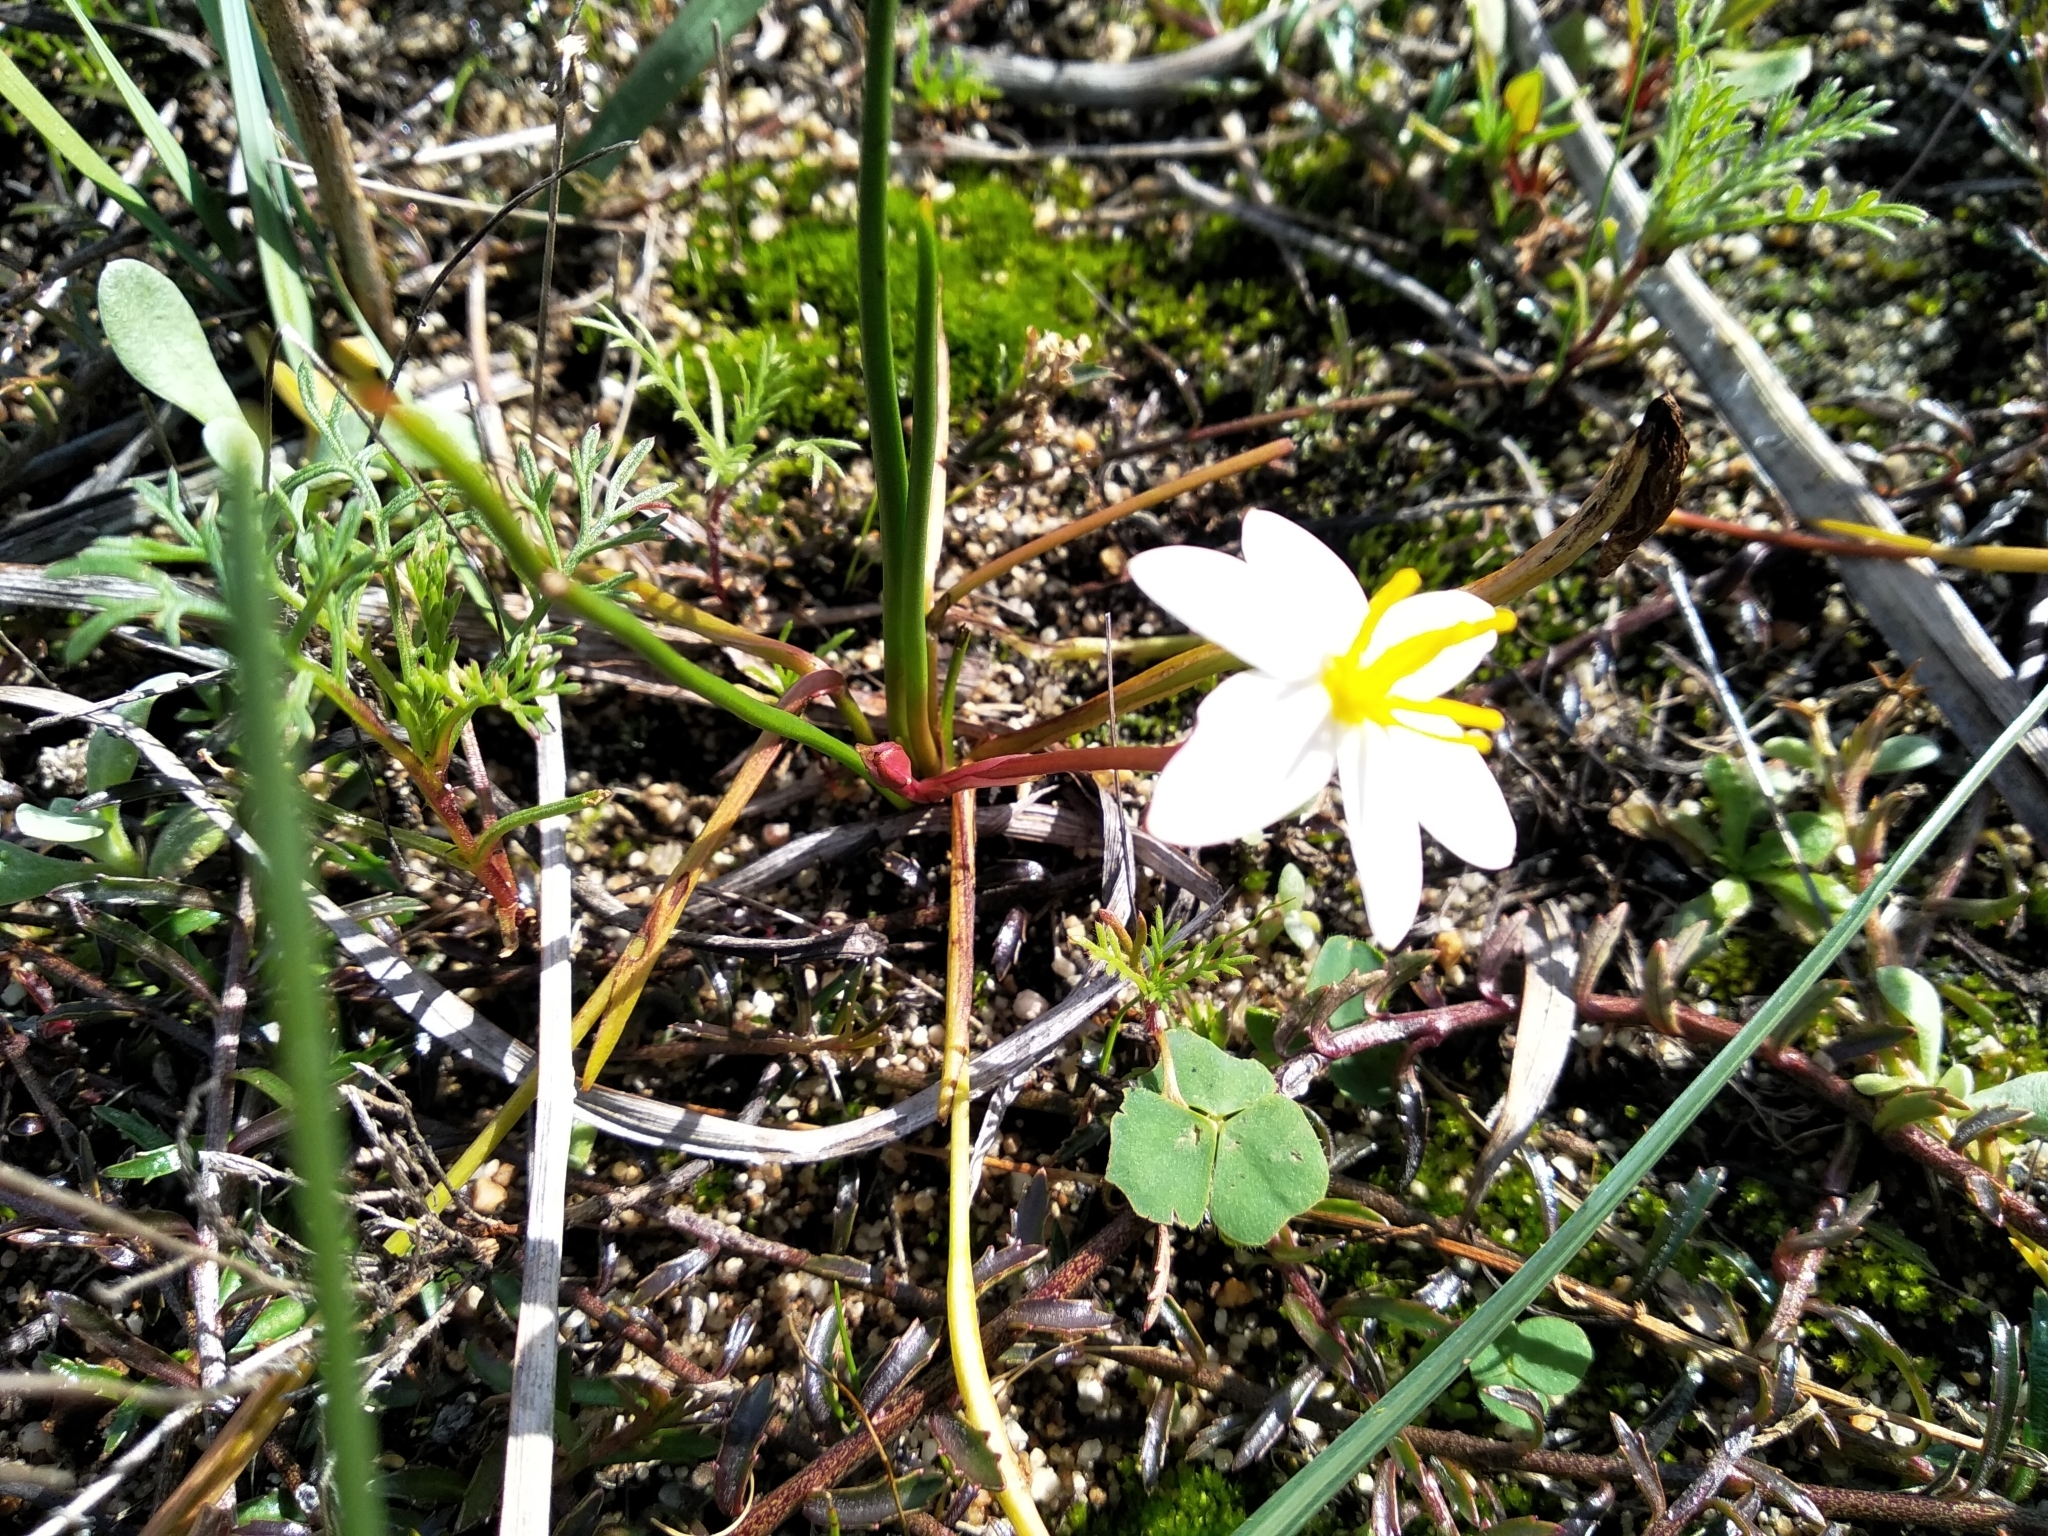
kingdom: Plantae
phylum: Tracheophyta
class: Liliopsida
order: Asparagales
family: Hypoxidaceae
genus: Pauridia
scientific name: Pauridia alba
